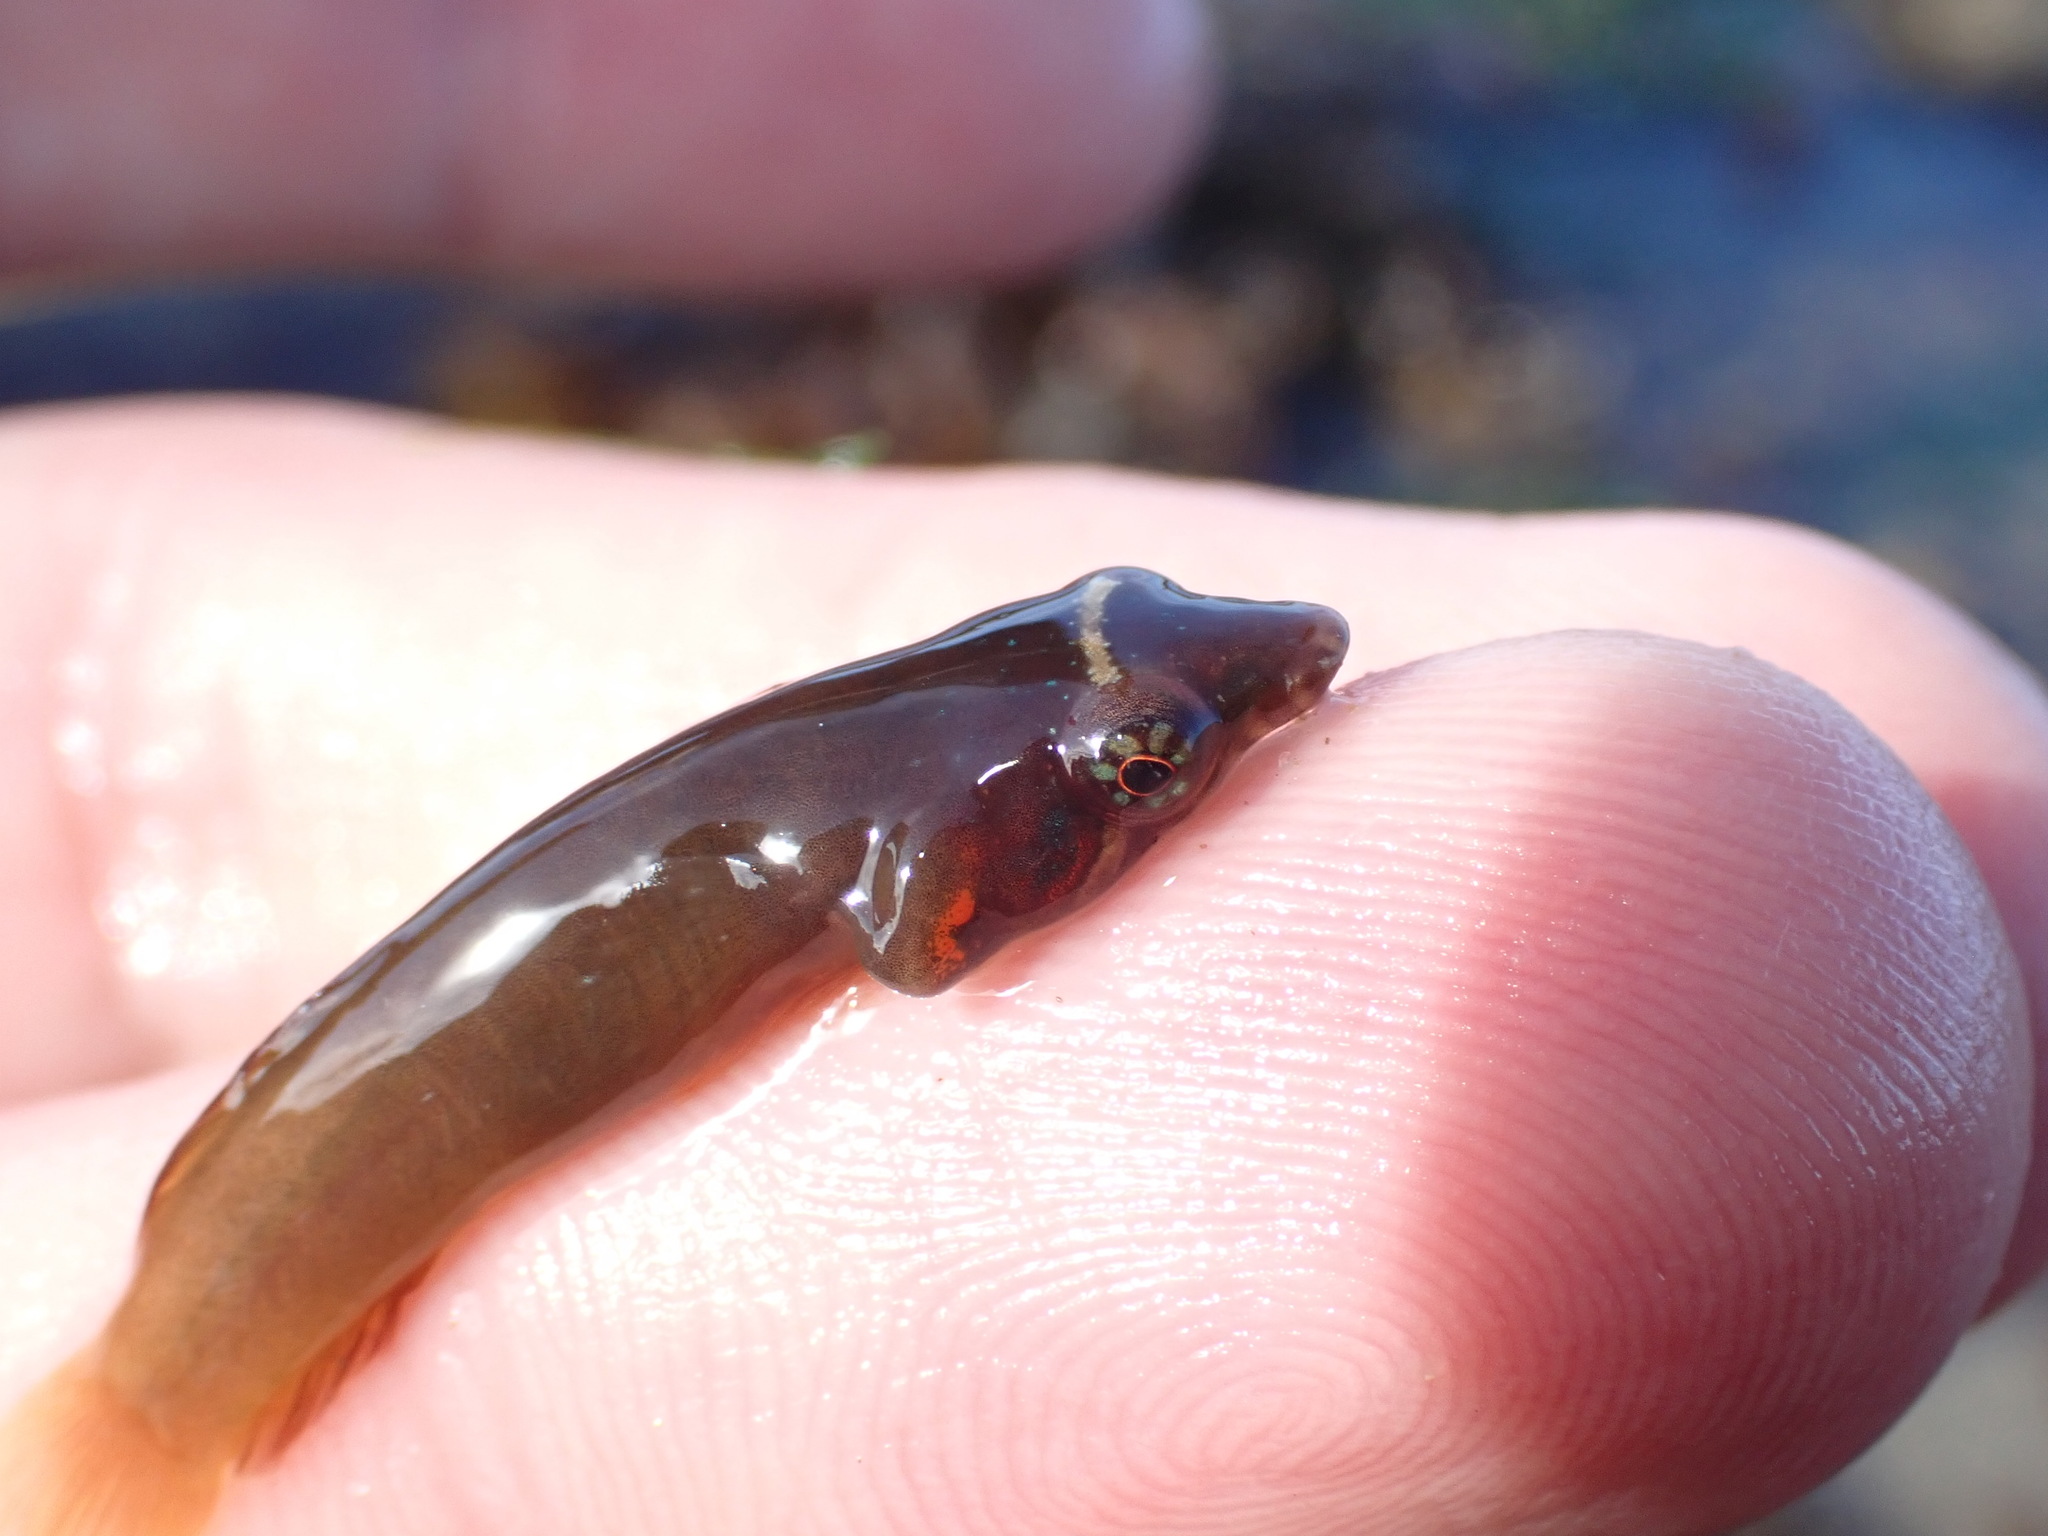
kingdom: Animalia
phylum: Chordata
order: Gobiesociformes
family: Gobiesocidae
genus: Lepadogaster
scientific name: Lepadogaster candolii
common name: Connemarra clingfish
